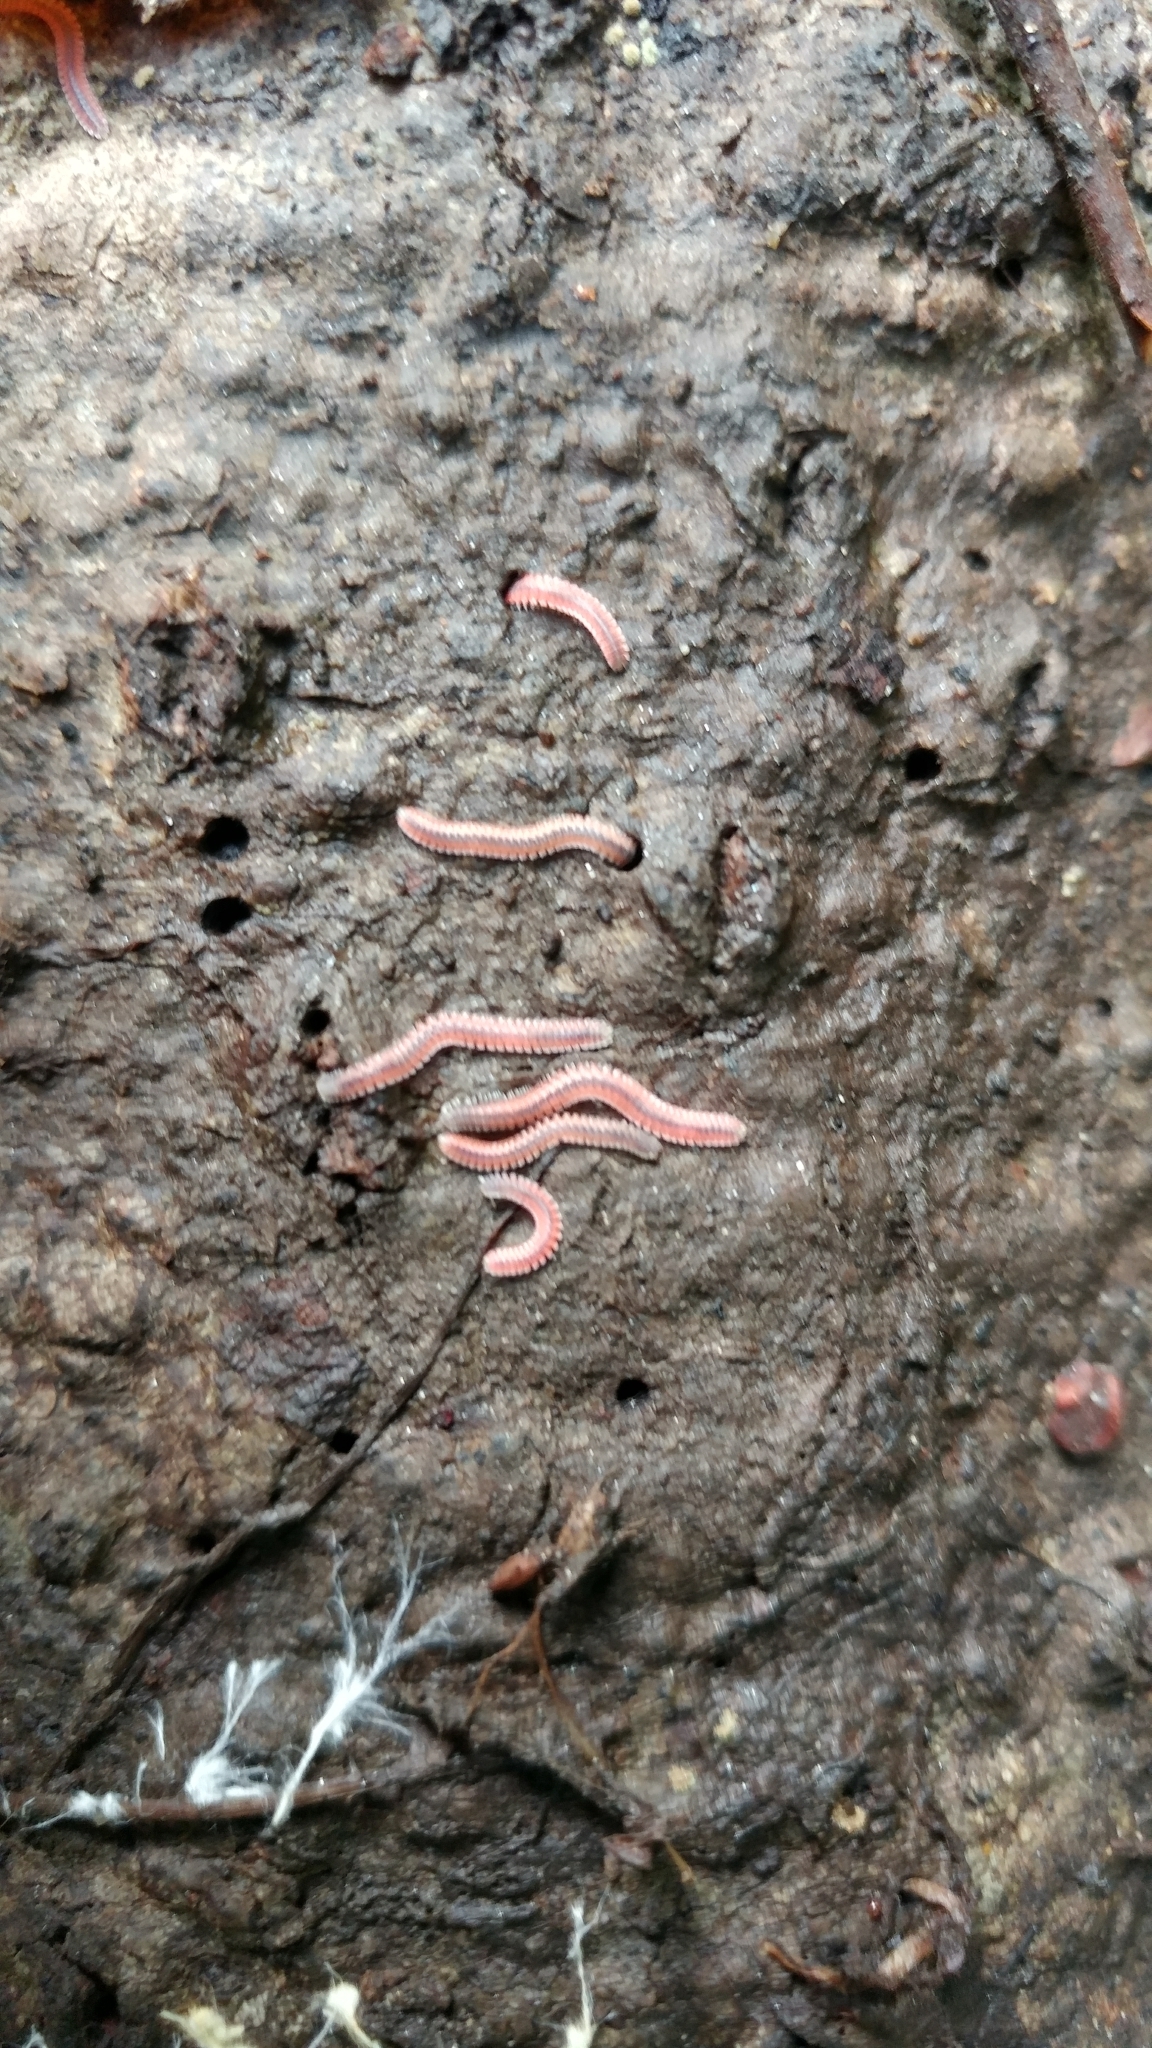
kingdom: Animalia
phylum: Arthropoda
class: Diplopoda
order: Platydesmida
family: Andrognathidae
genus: Gosodesmus
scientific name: Gosodesmus claremontus
